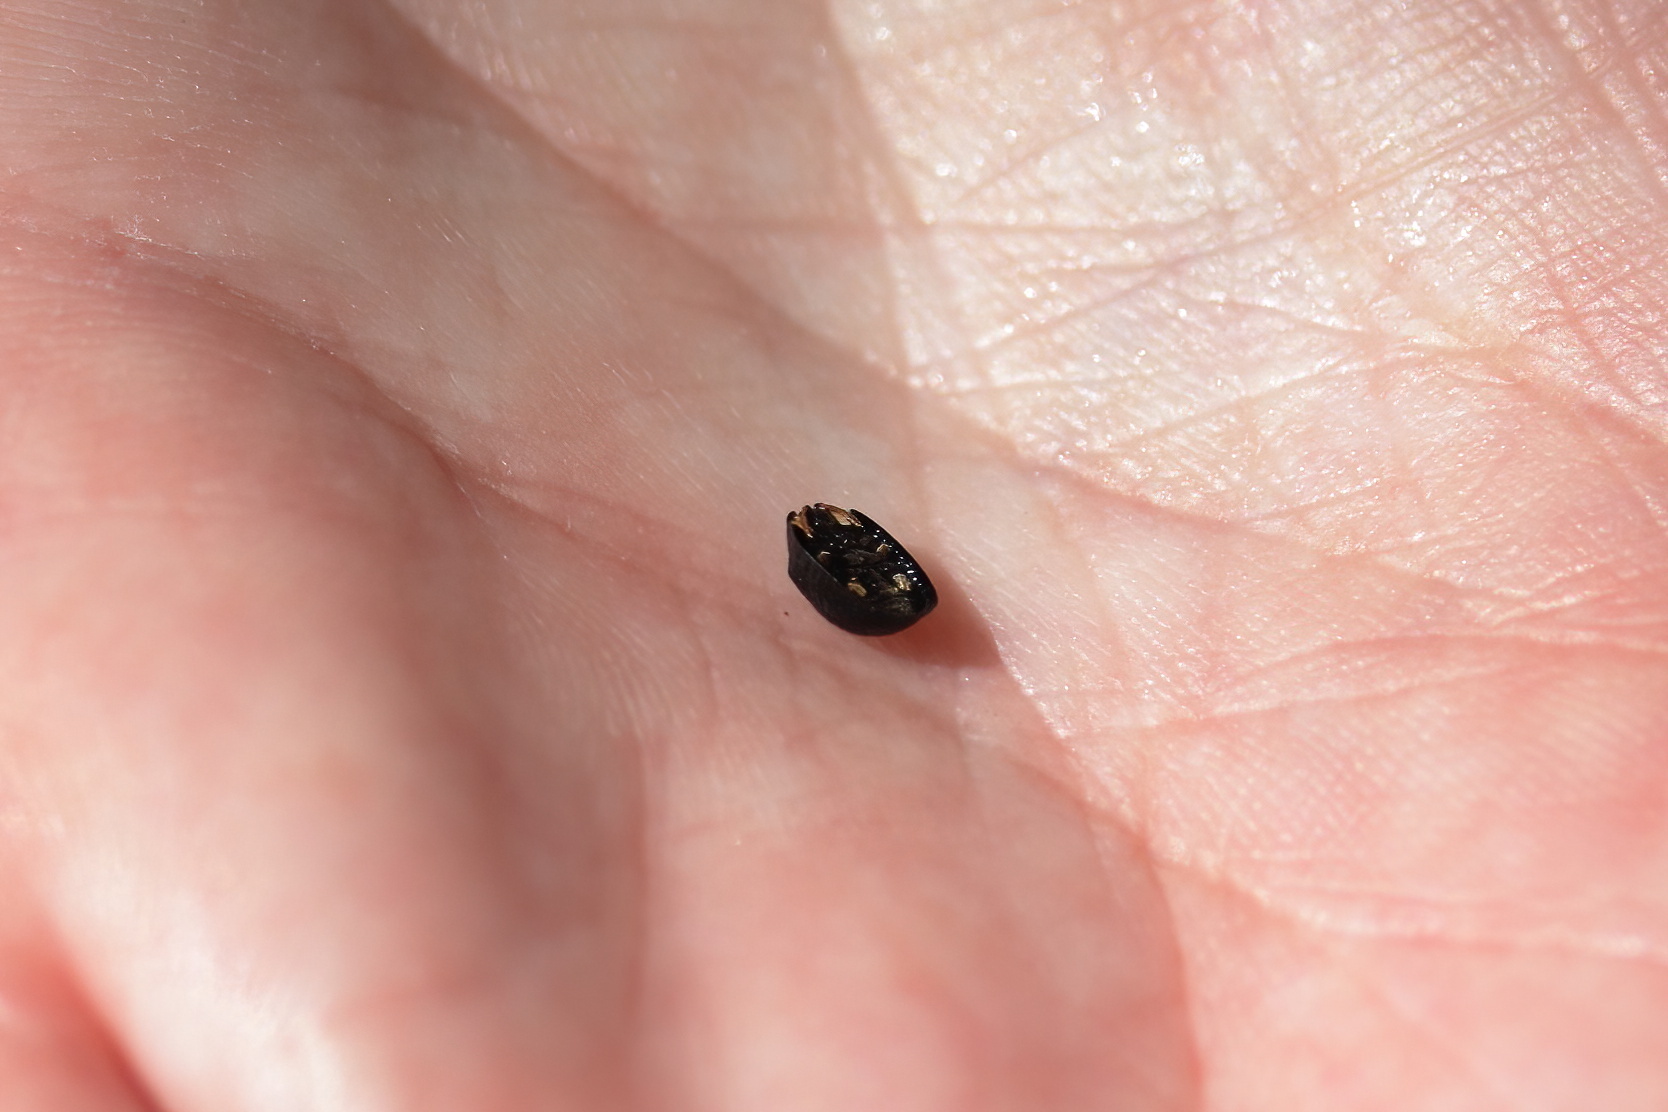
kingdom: Animalia
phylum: Arthropoda
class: Insecta
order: Coleoptera
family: Chrysomelidae
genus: Hemisphaerota
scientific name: Hemisphaerota cyanea
